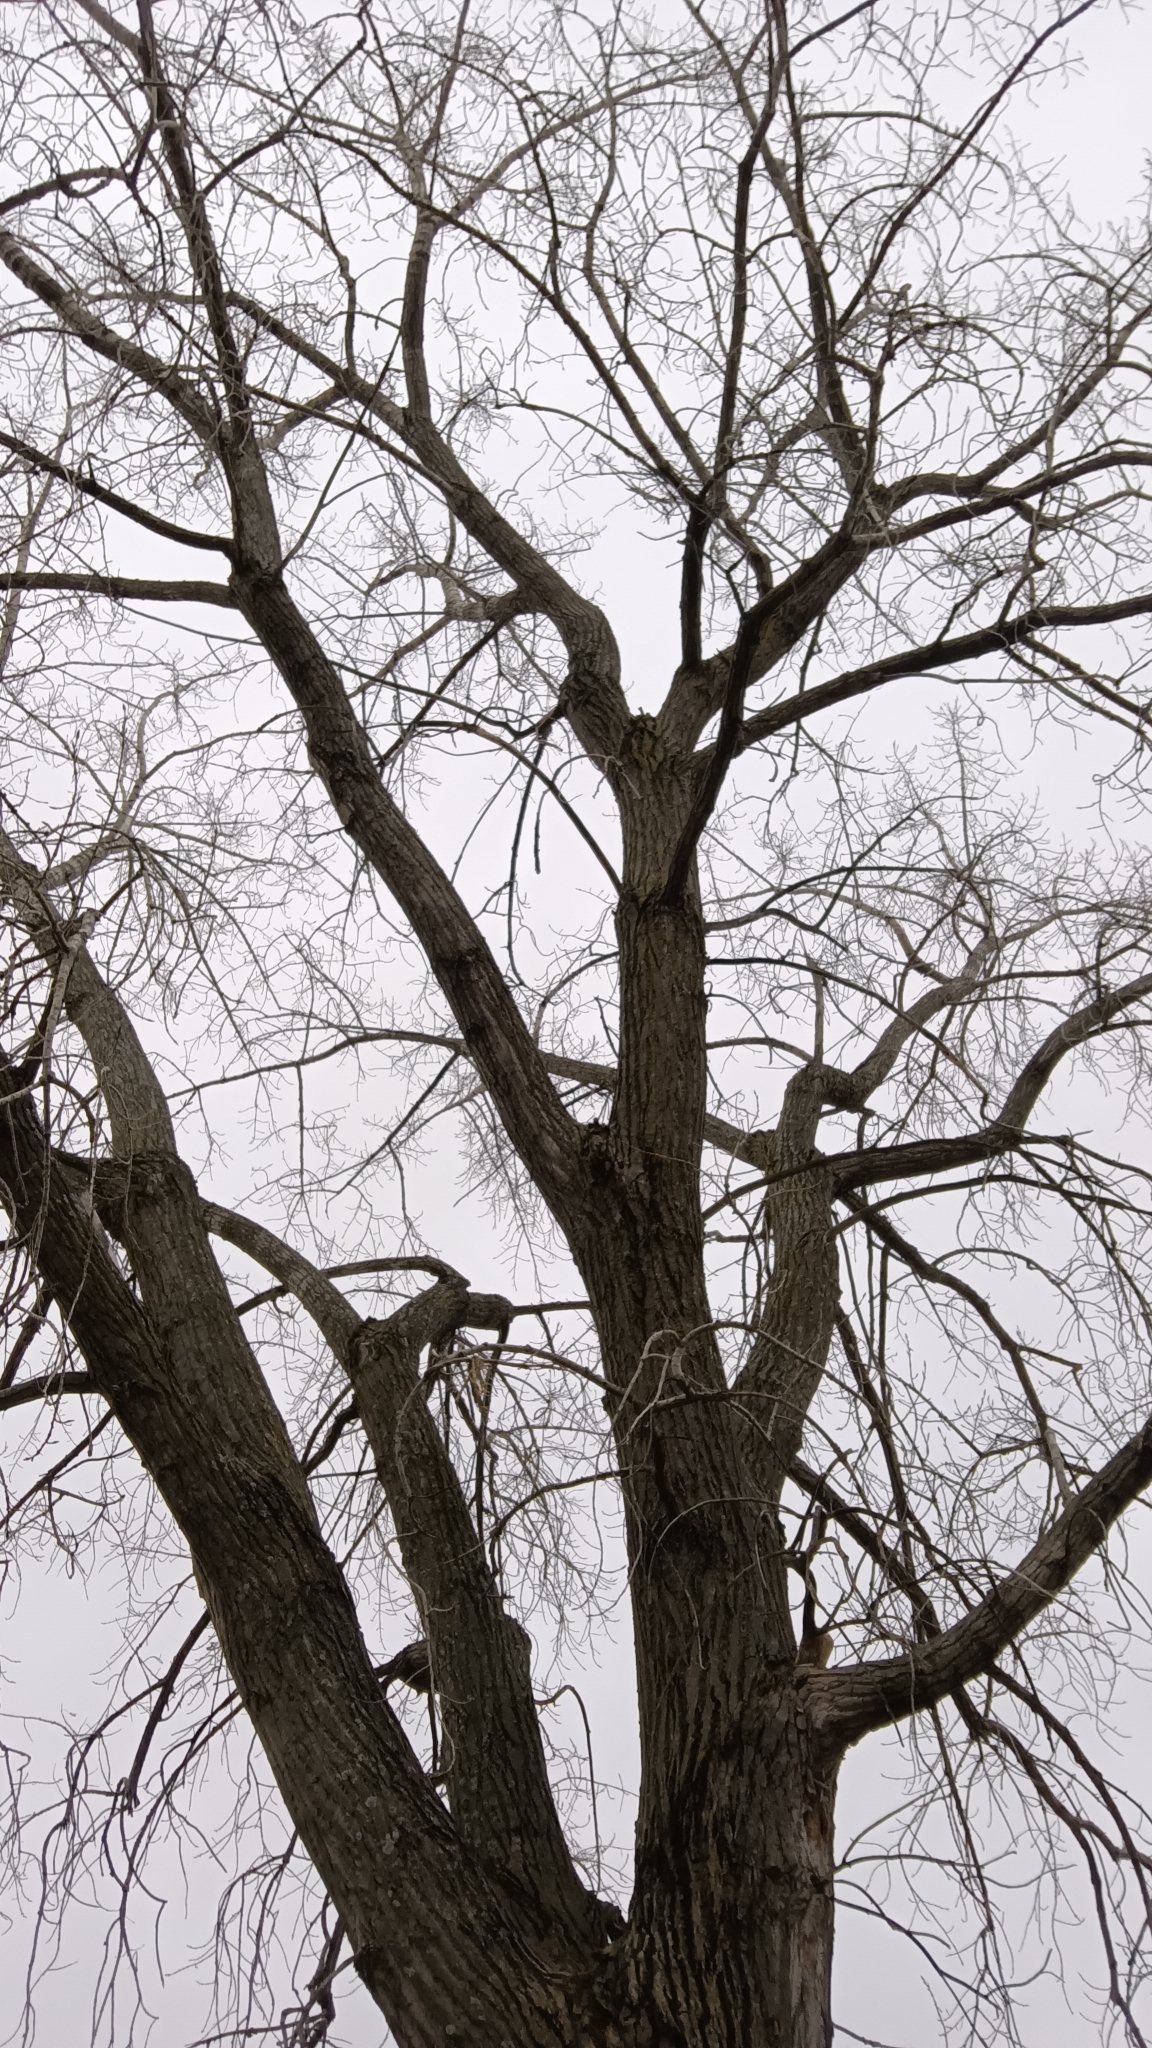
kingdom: Plantae
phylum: Tracheophyta
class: Magnoliopsida
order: Malpighiales
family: Salicaceae
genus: Populus
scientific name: Populus deltoides
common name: Eastern cottonwood
